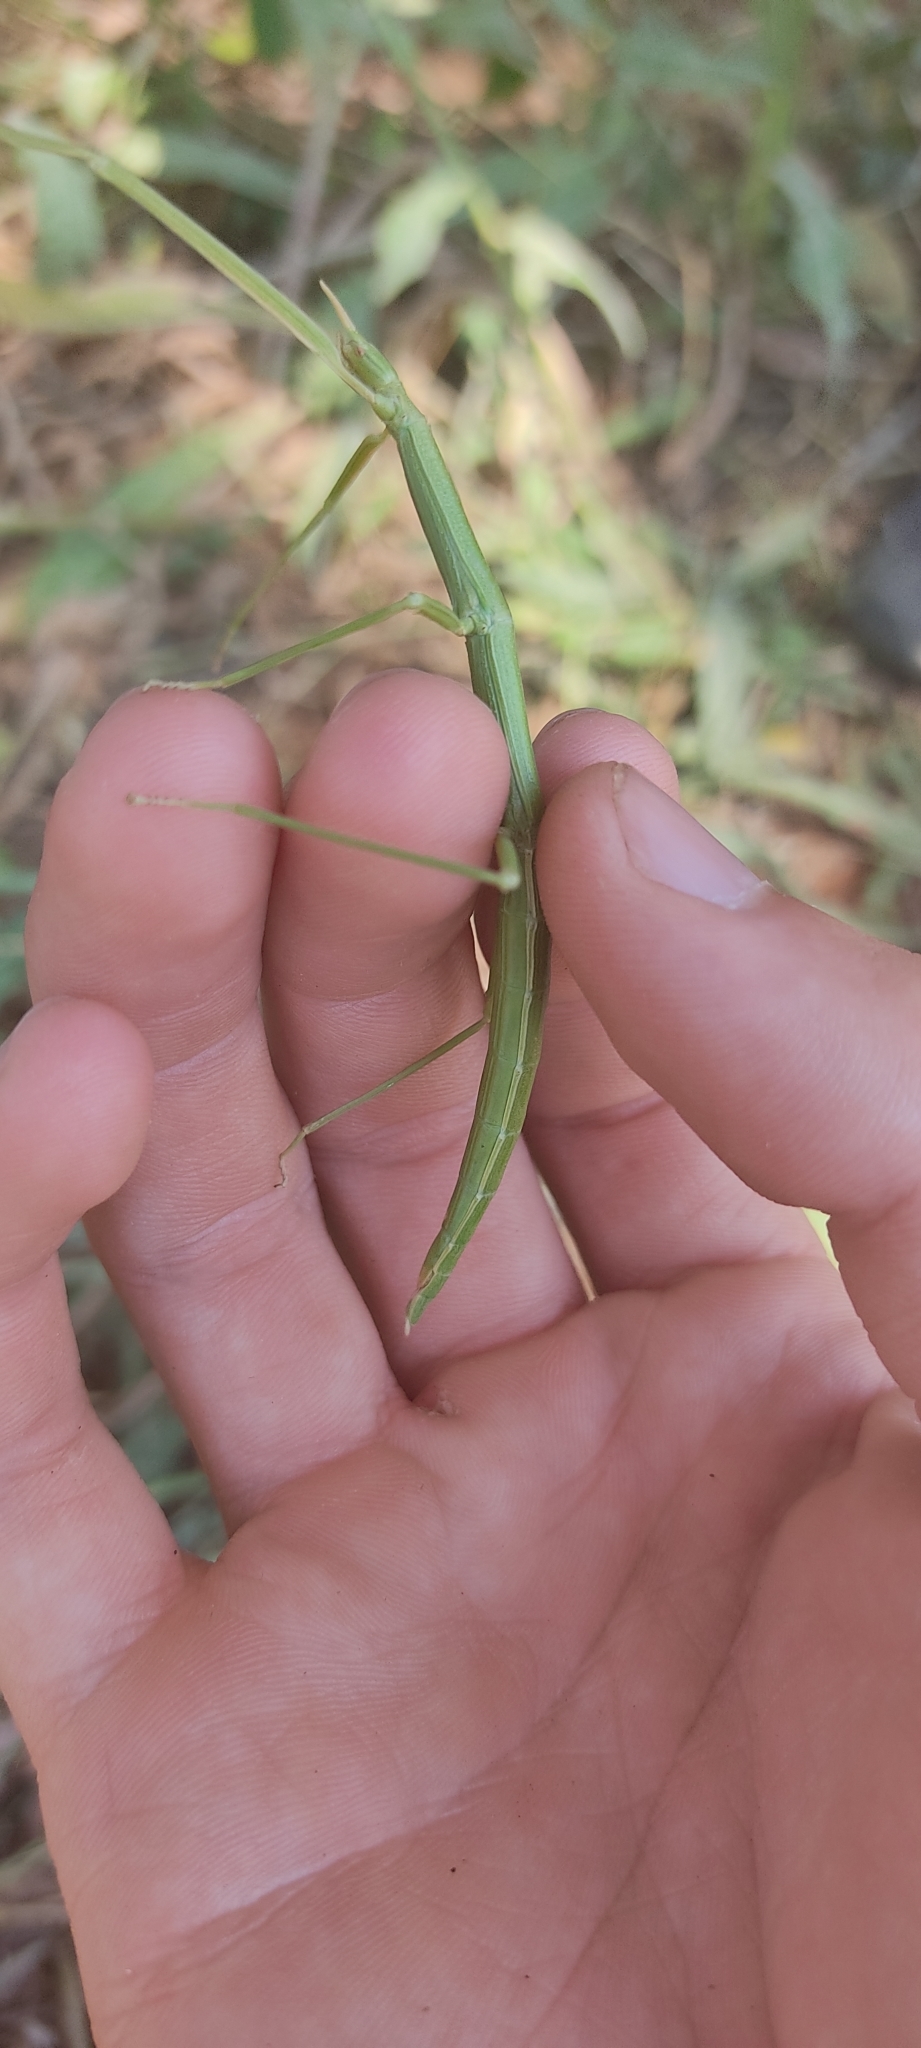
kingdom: Animalia
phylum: Arthropoda
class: Insecta
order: Phasmida
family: Bacillidae
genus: Clonopsis
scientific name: Clonopsis gallica
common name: French stick insect
